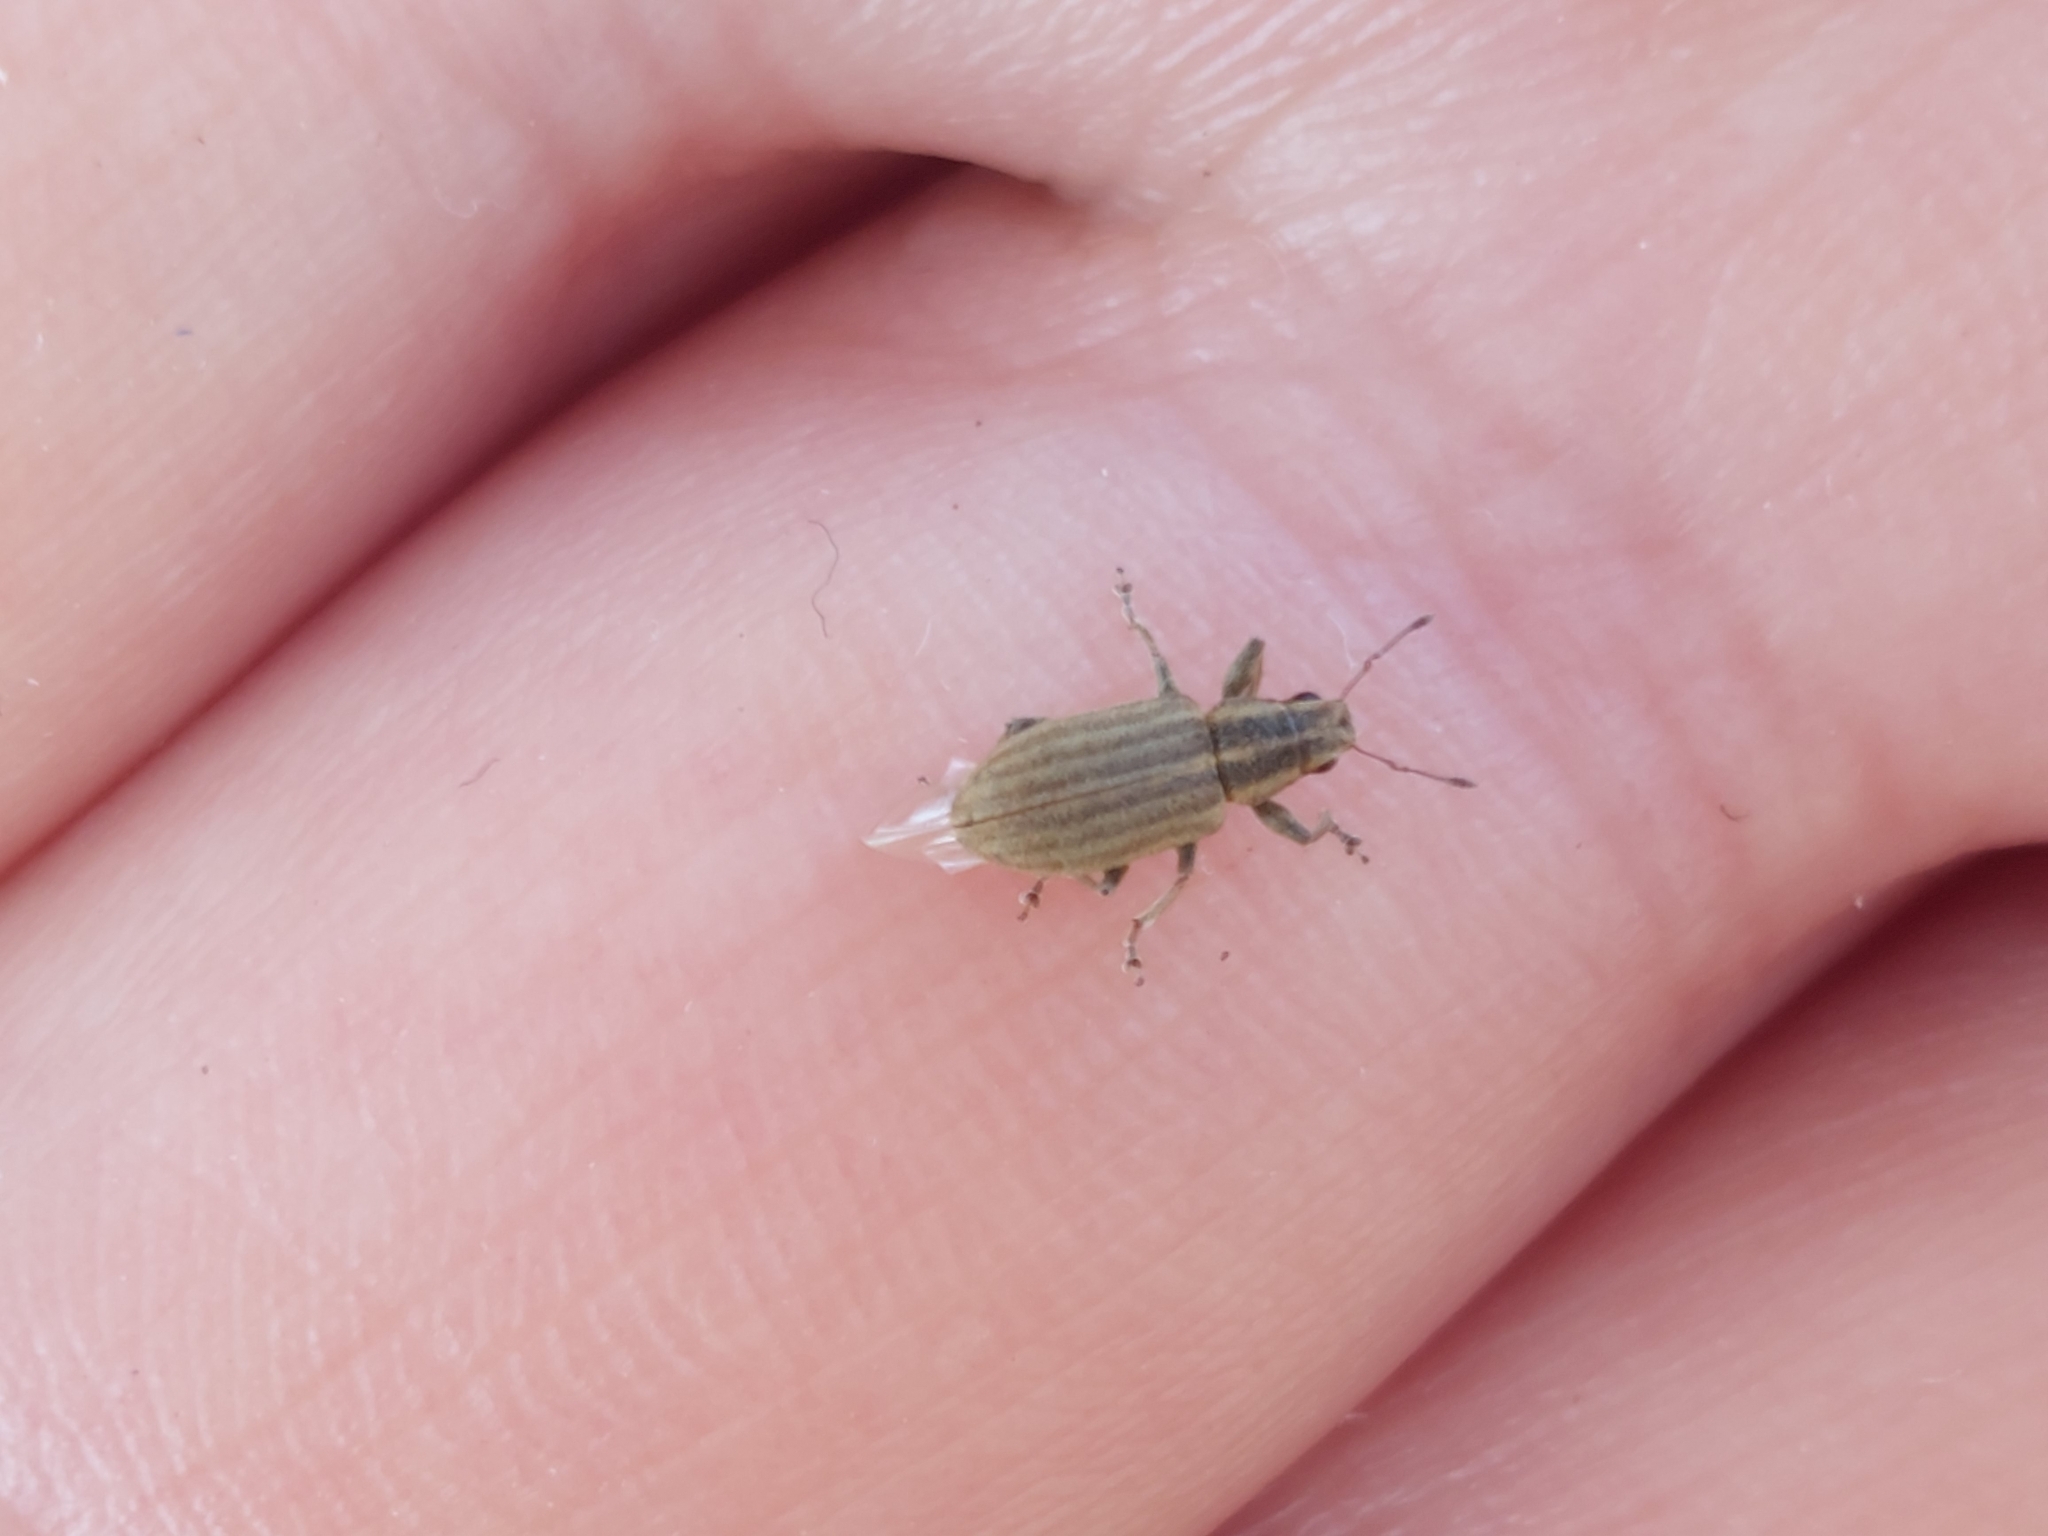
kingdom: Animalia
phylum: Arthropoda
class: Insecta
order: Coleoptera
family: Curculionidae
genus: Sitona
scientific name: Sitona lineatus
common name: Weevil
